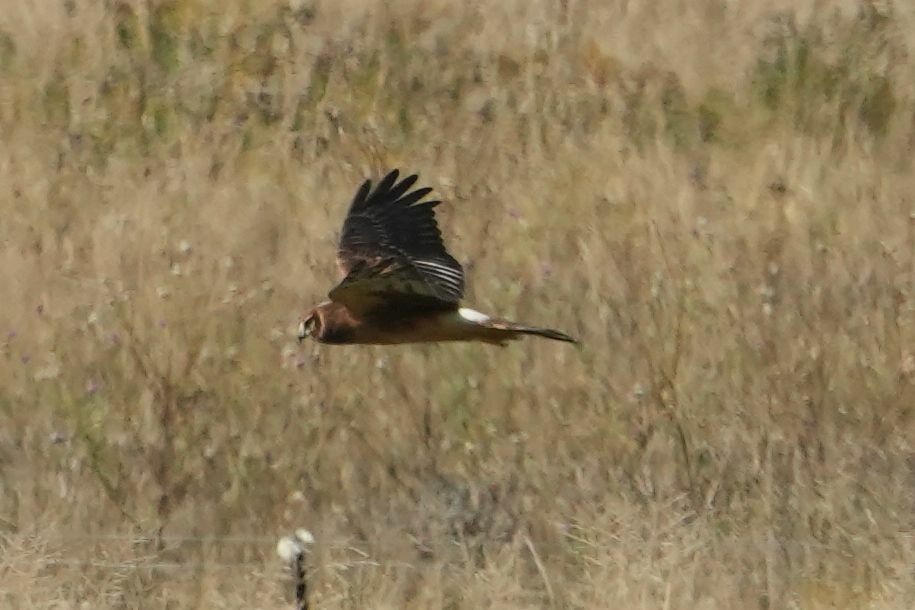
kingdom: Animalia
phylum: Chordata
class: Aves
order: Accipitriformes
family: Accipitridae
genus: Circus
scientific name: Circus cyaneus
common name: Hen harrier
